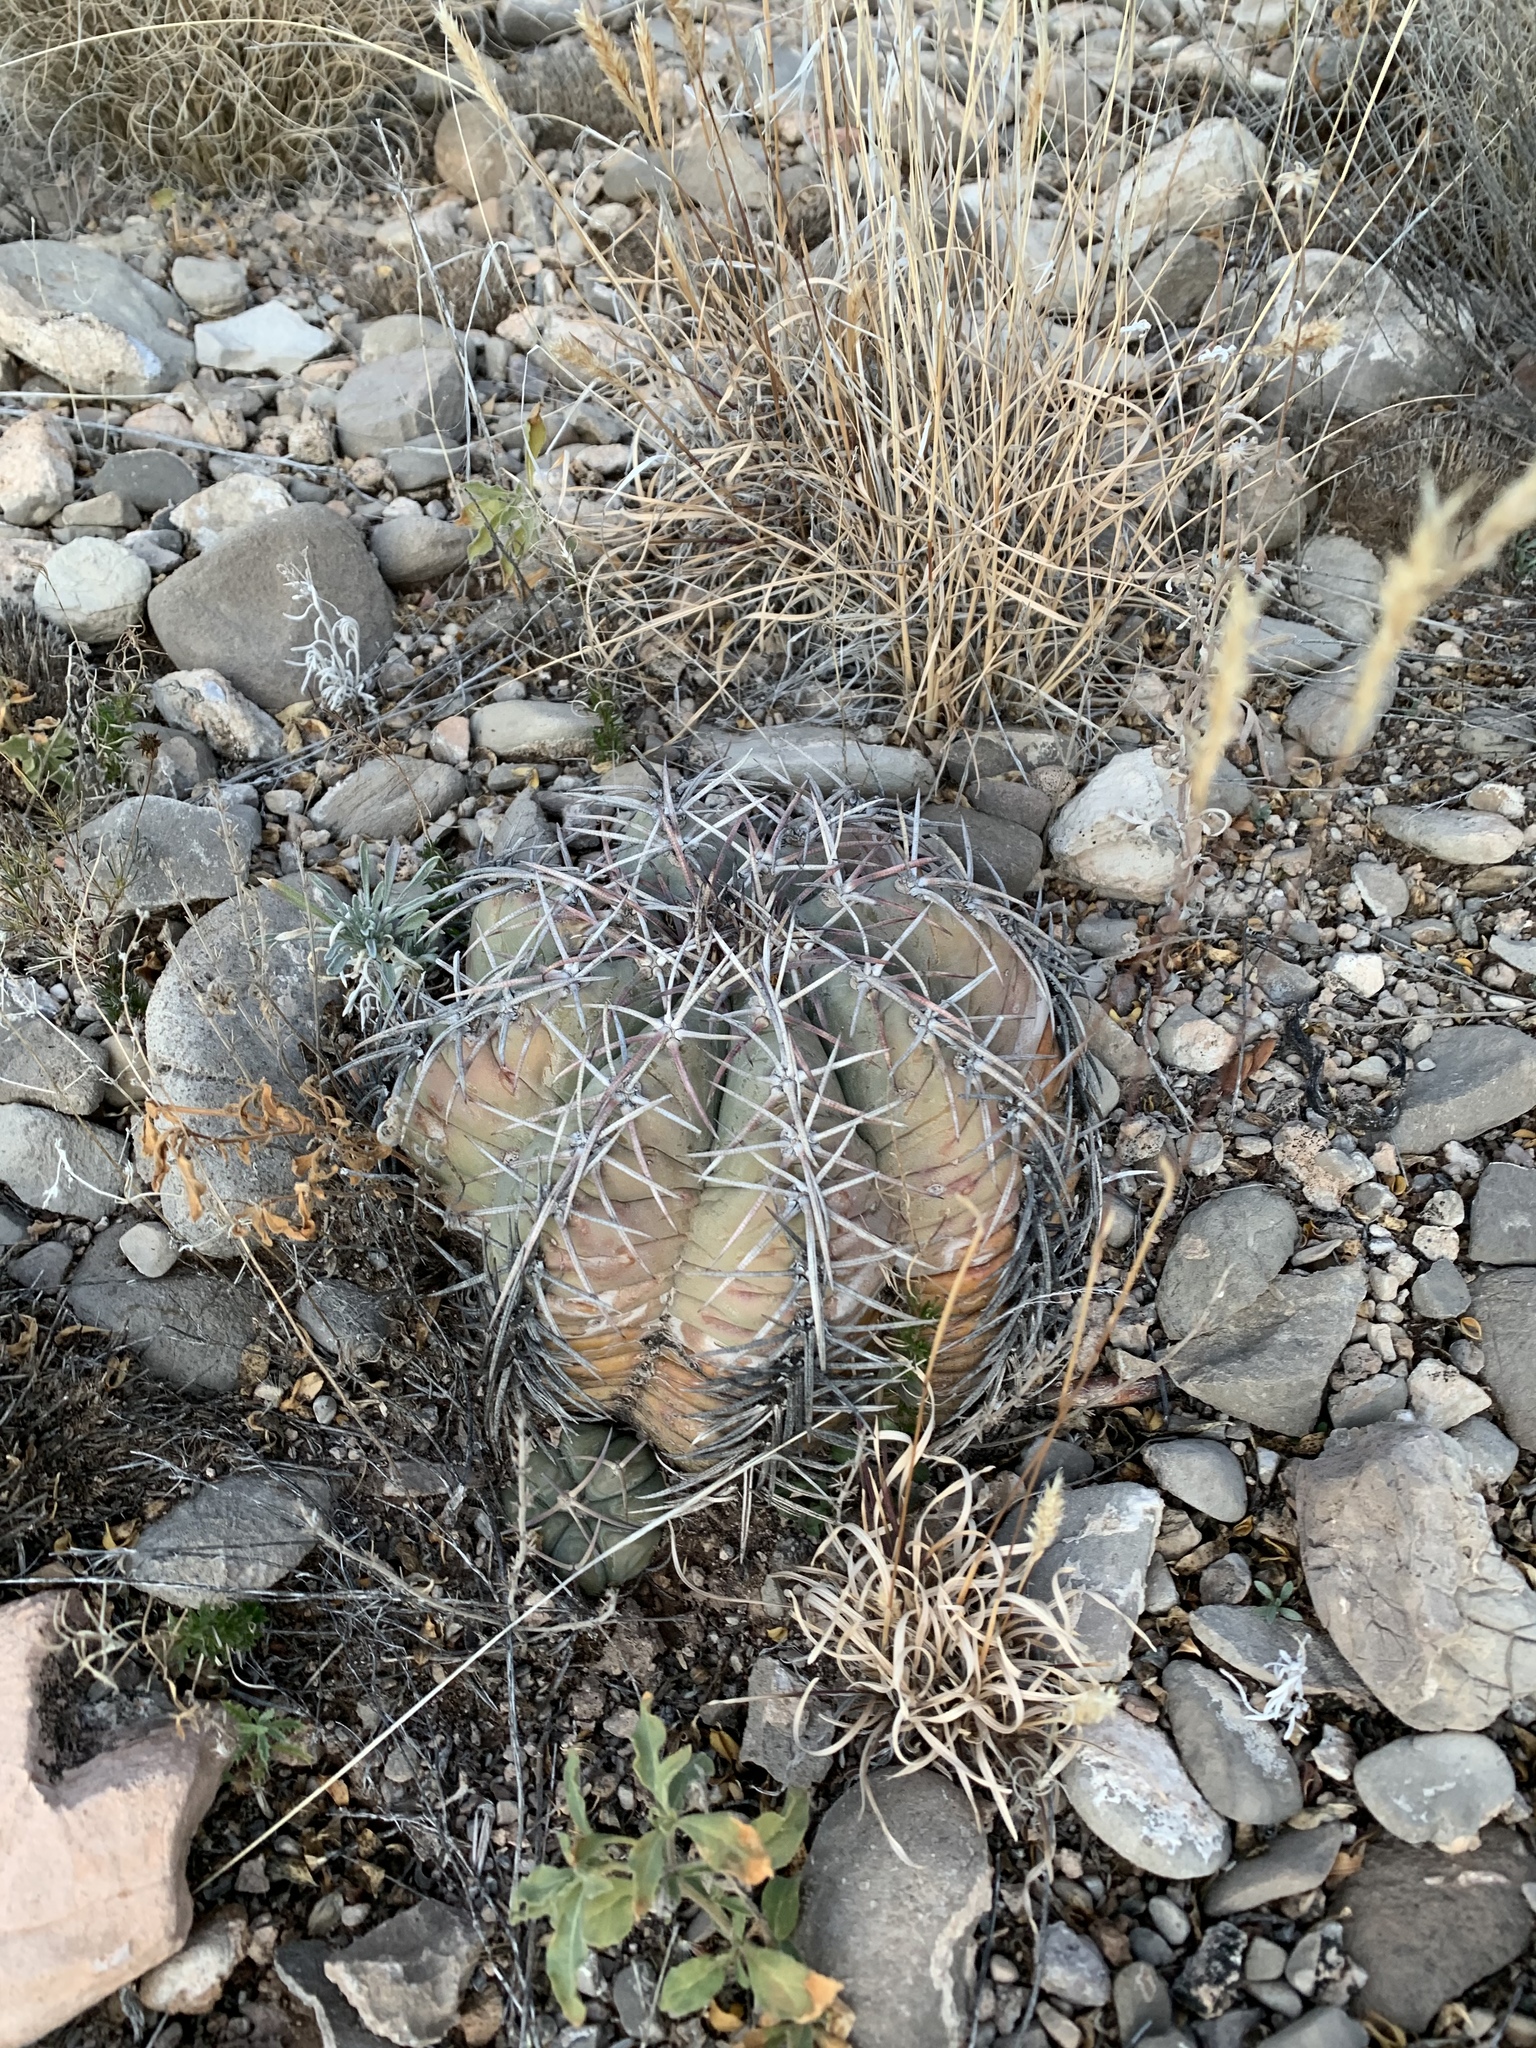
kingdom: Plantae
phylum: Tracheophyta
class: Magnoliopsida
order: Caryophyllales
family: Cactaceae
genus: Echinocactus
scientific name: Echinocactus horizonthalonius
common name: Devilshead
